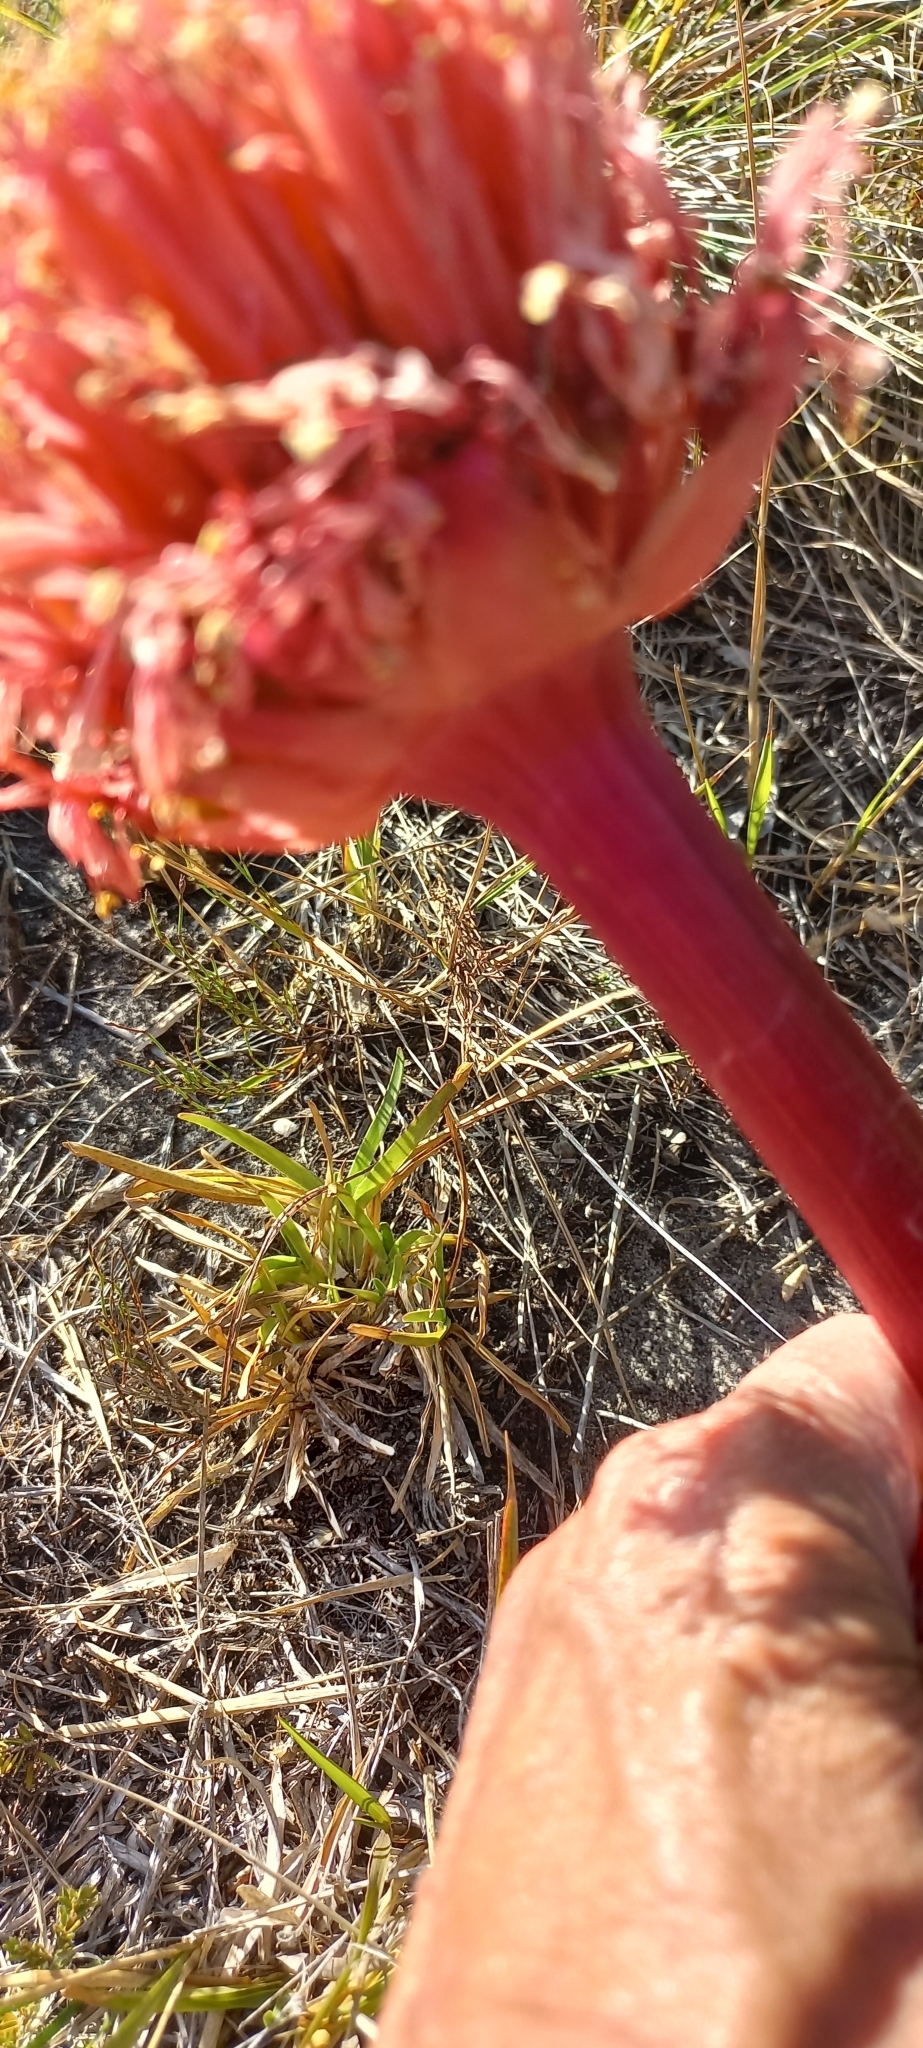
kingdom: Plantae
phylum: Tracheophyta
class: Liliopsida
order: Asparagales
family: Amaryllidaceae
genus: Haemanthus
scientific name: Haemanthus sanguineus
